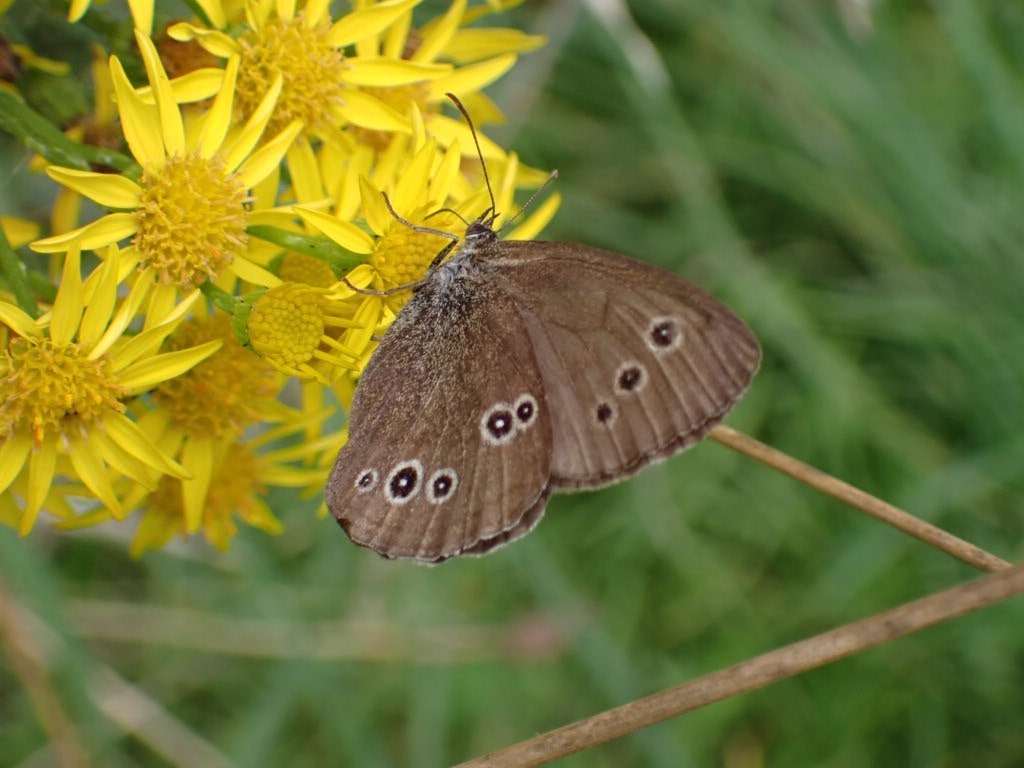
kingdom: Animalia
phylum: Arthropoda
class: Insecta
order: Lepidoptera
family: Nymphalidae
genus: Aphantopus
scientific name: Aphantopus hyperantus
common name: Ringlet
